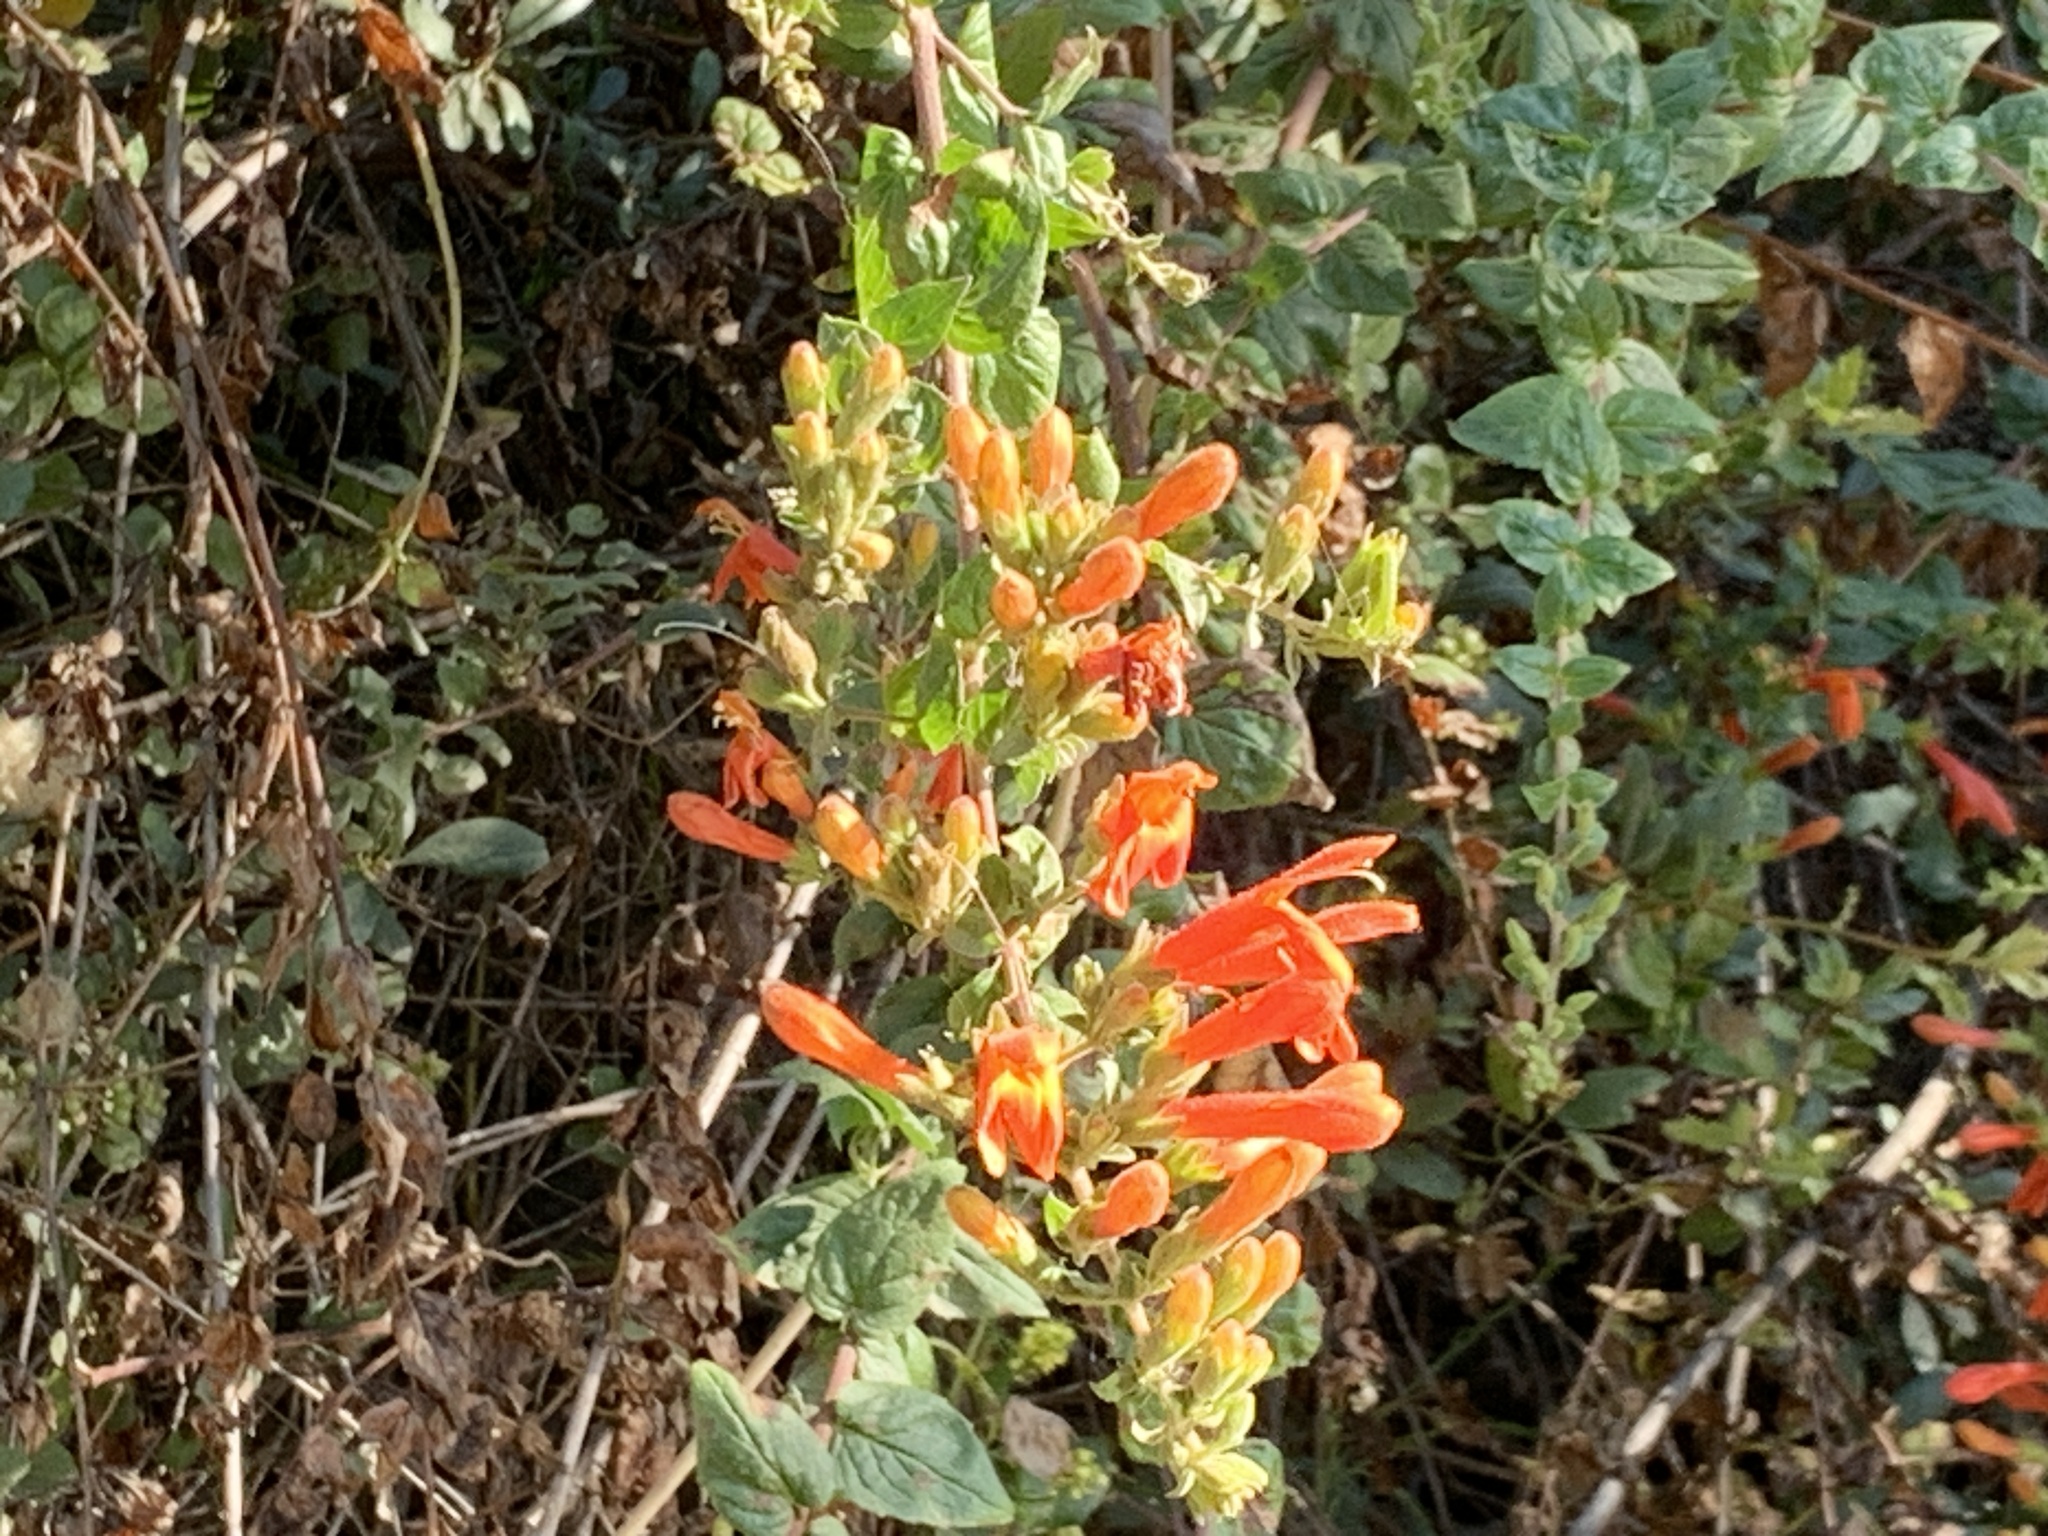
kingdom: Plantae
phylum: Tracheophyta
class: Magnoliopsida
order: Lamiales
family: Plantaginaceae
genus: Keckiella
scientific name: Keckiella cordifolia
